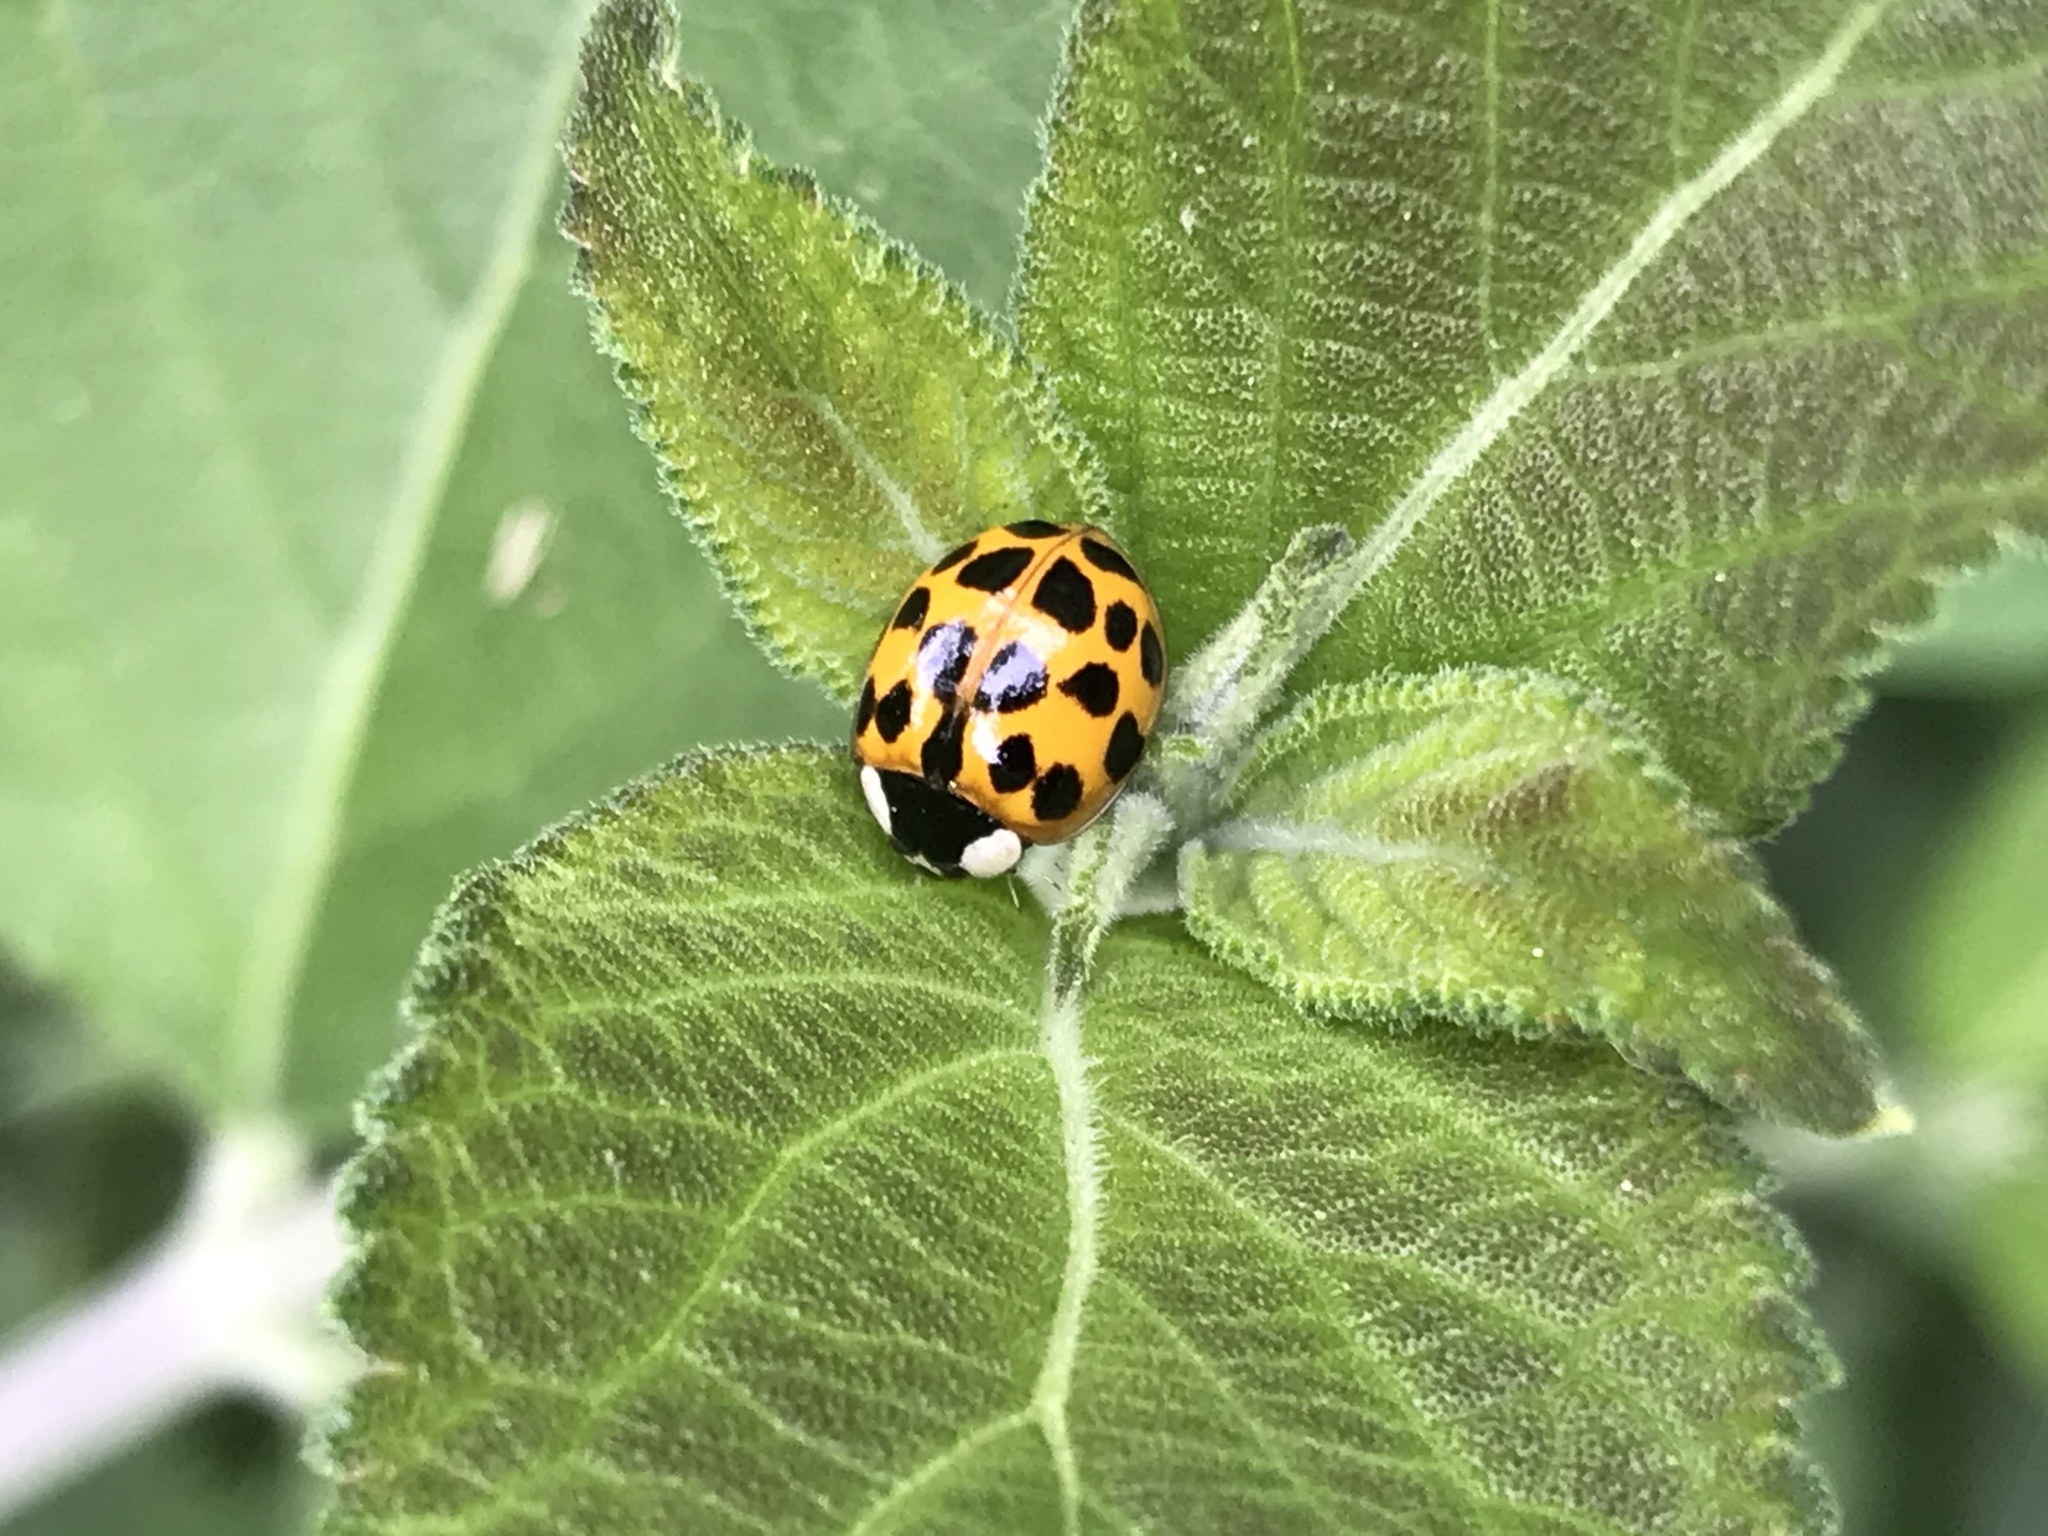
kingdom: Animalia
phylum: Arthropoda
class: Insecta
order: Coleoptera
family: Coccinellidae
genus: Harmonia
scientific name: Harmonia axyridis
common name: Harlequin ladybird
